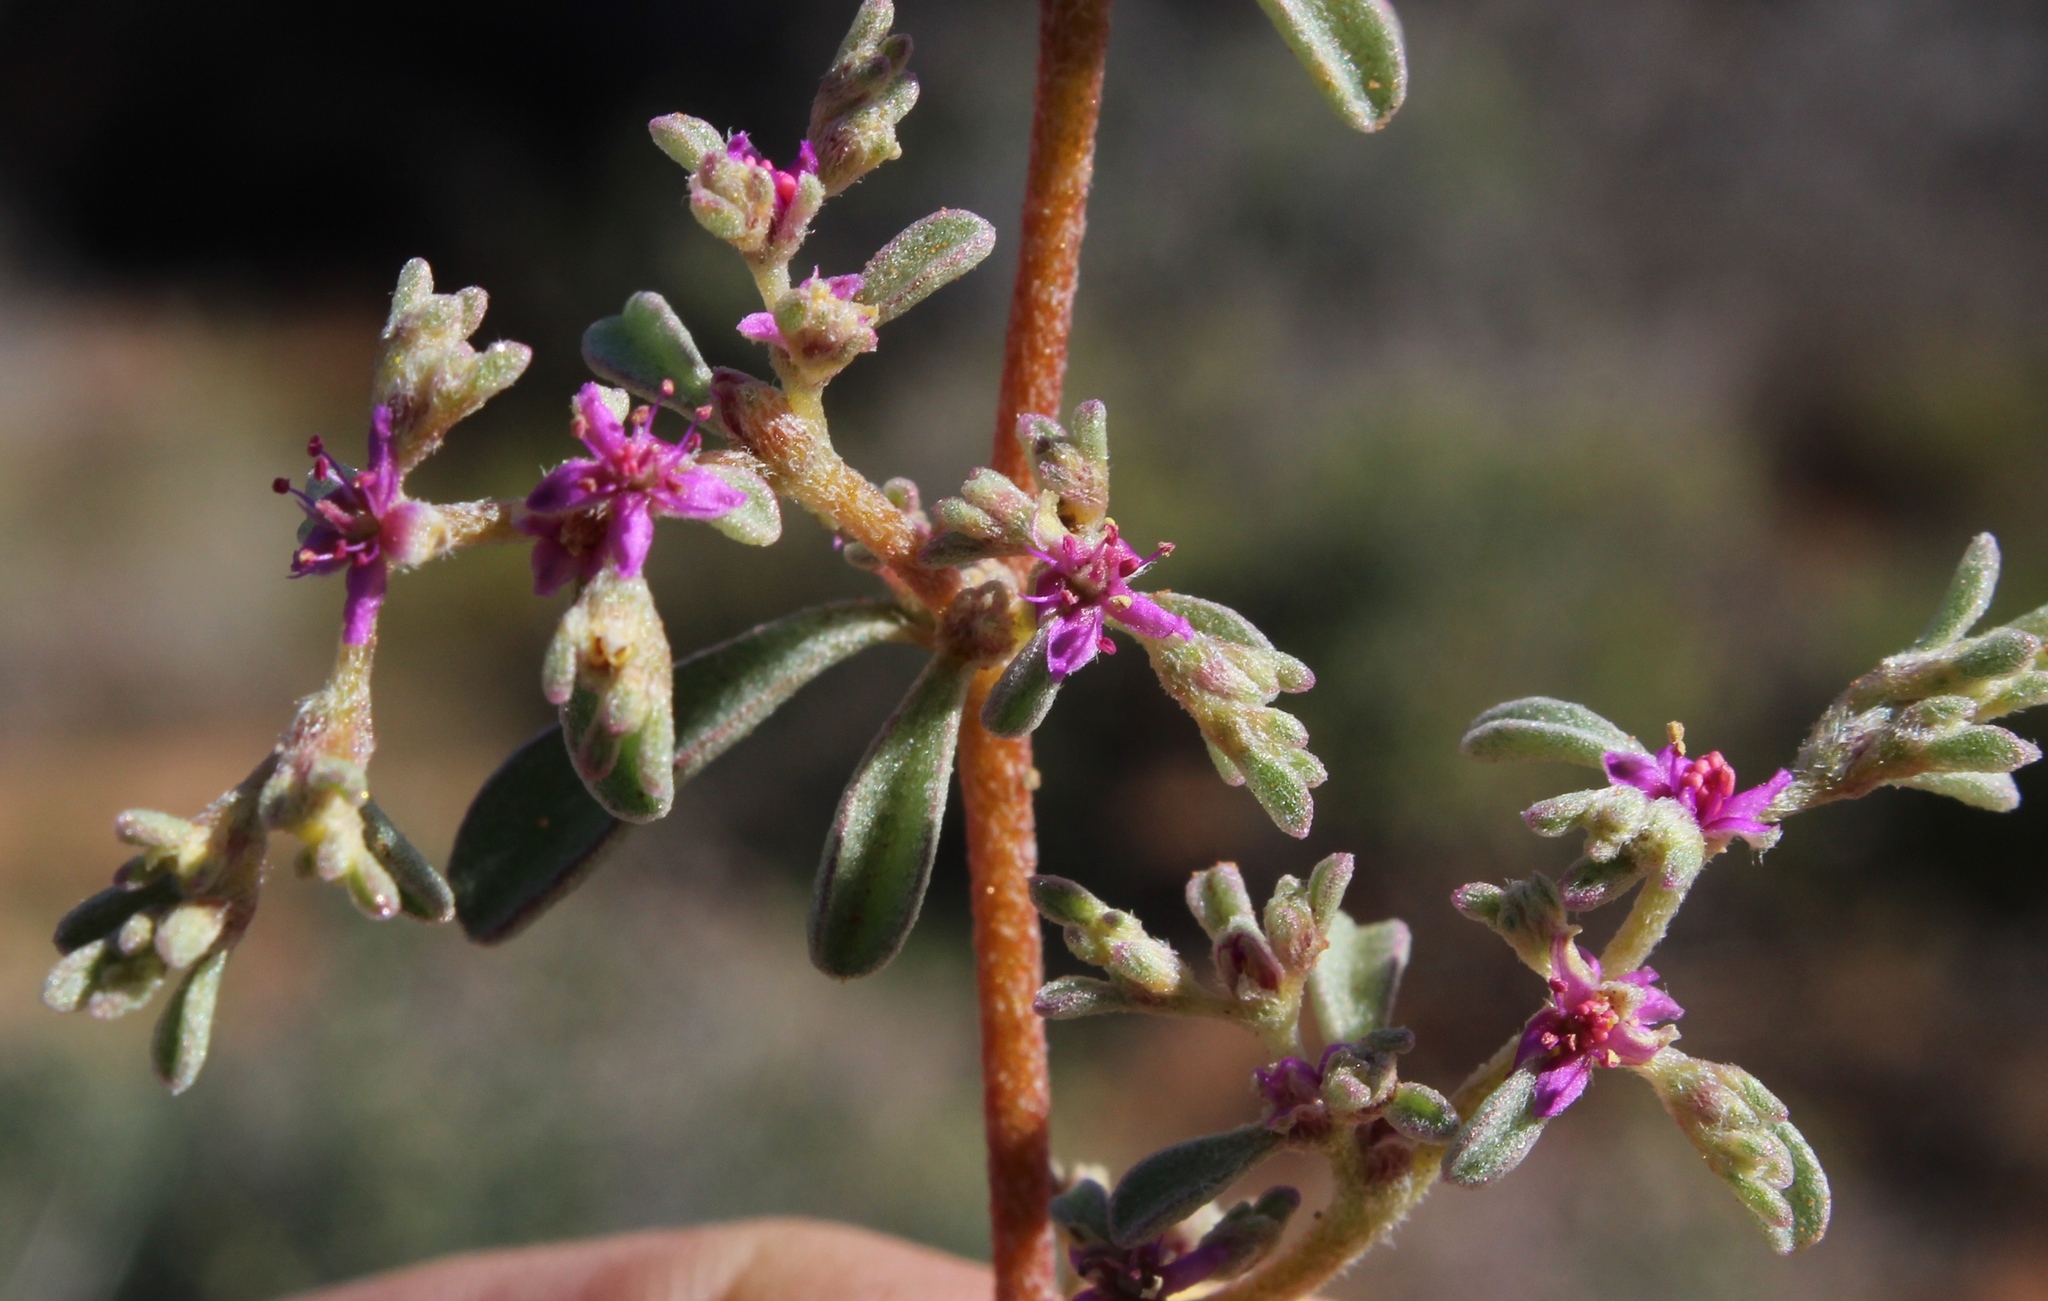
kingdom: Plantae
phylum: Tracheophyta
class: Magnoliopsida
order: Caryophyllales
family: Aizoaceae
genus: Aizoon
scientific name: Aizoon papulosum
